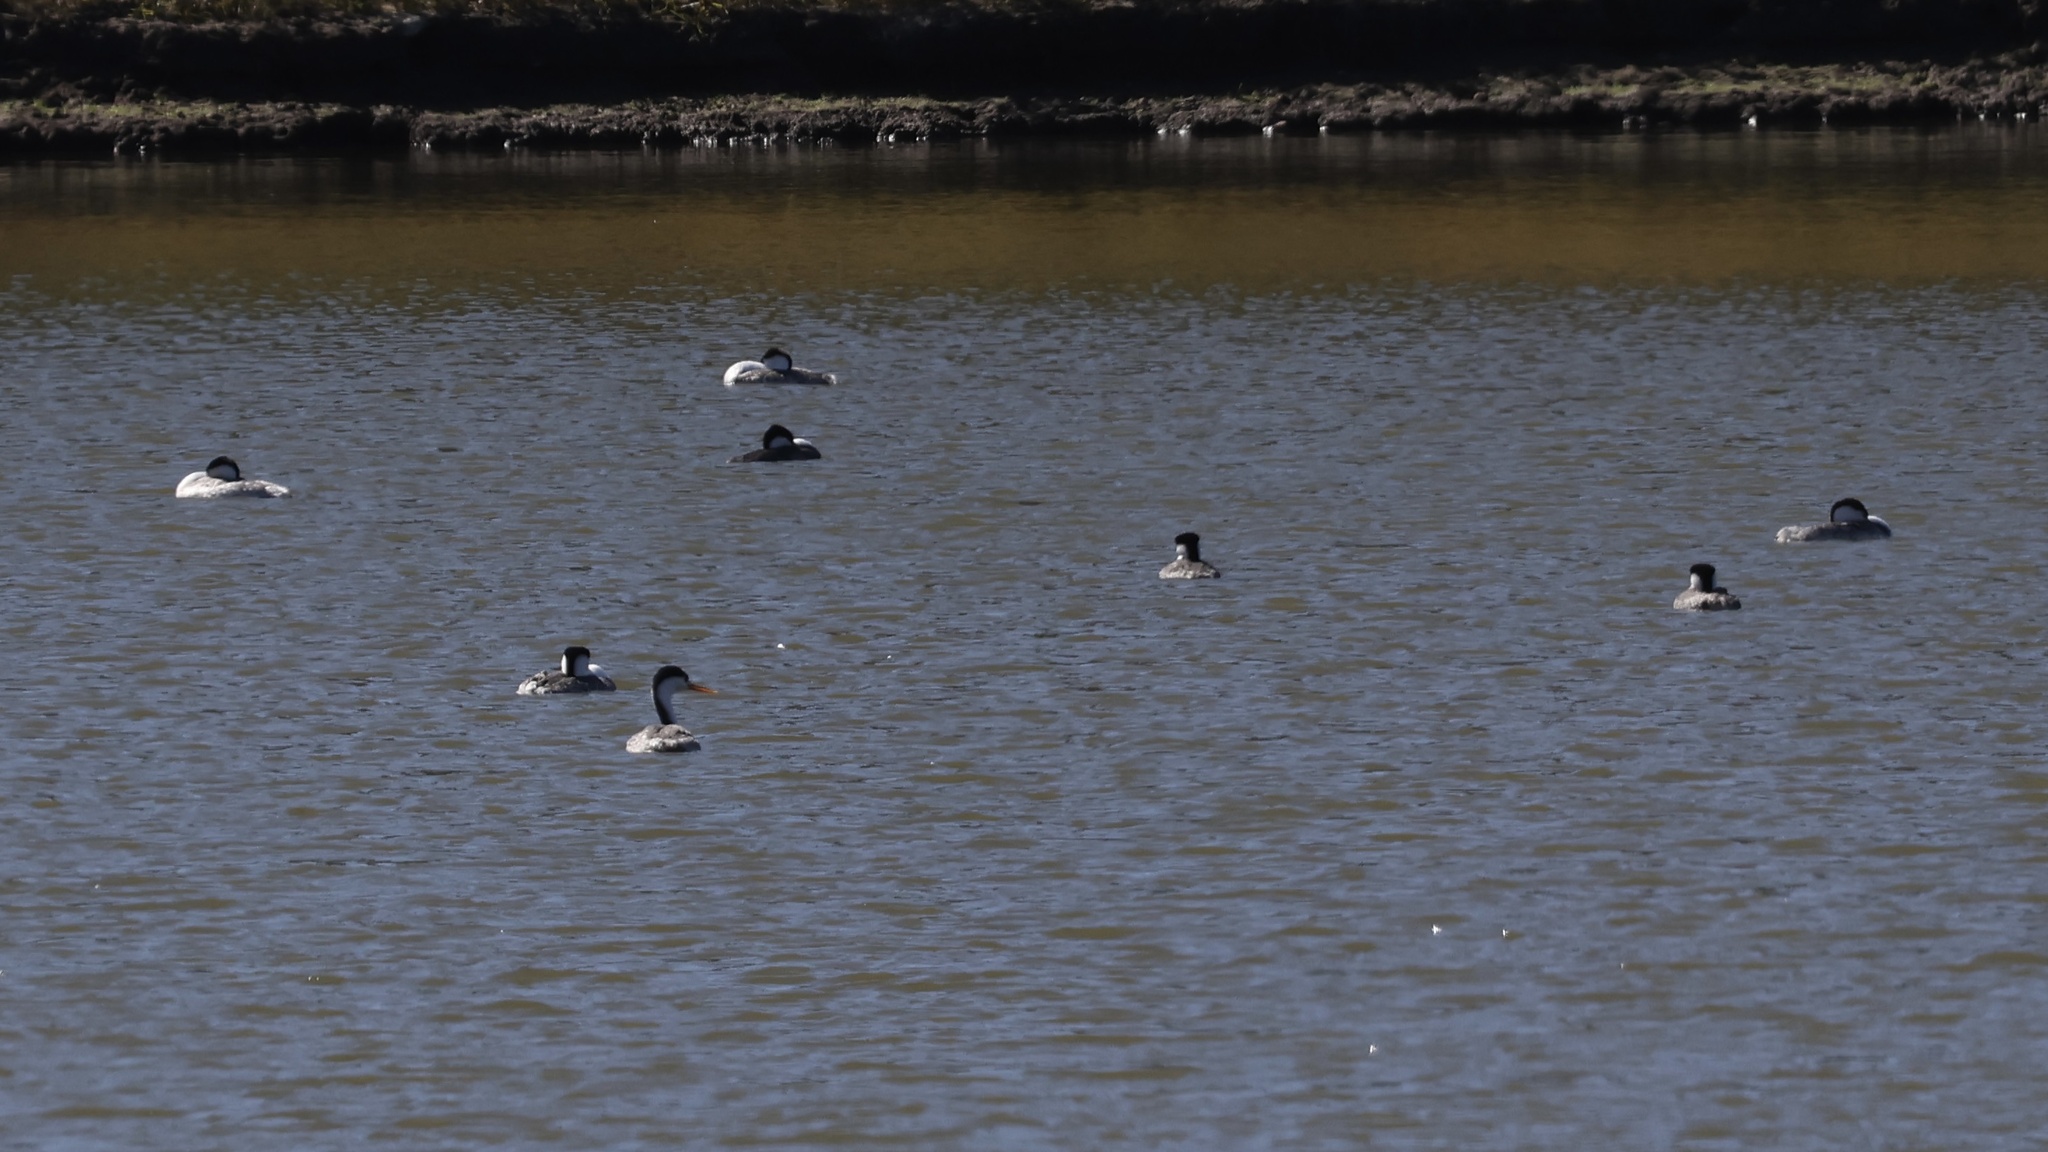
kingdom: Animalia
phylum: Chordata
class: Aves
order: Podicipediformes
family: Podicipedidae
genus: Aechmophorus
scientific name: Aechmophorus occidentalis
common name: Western grebe
